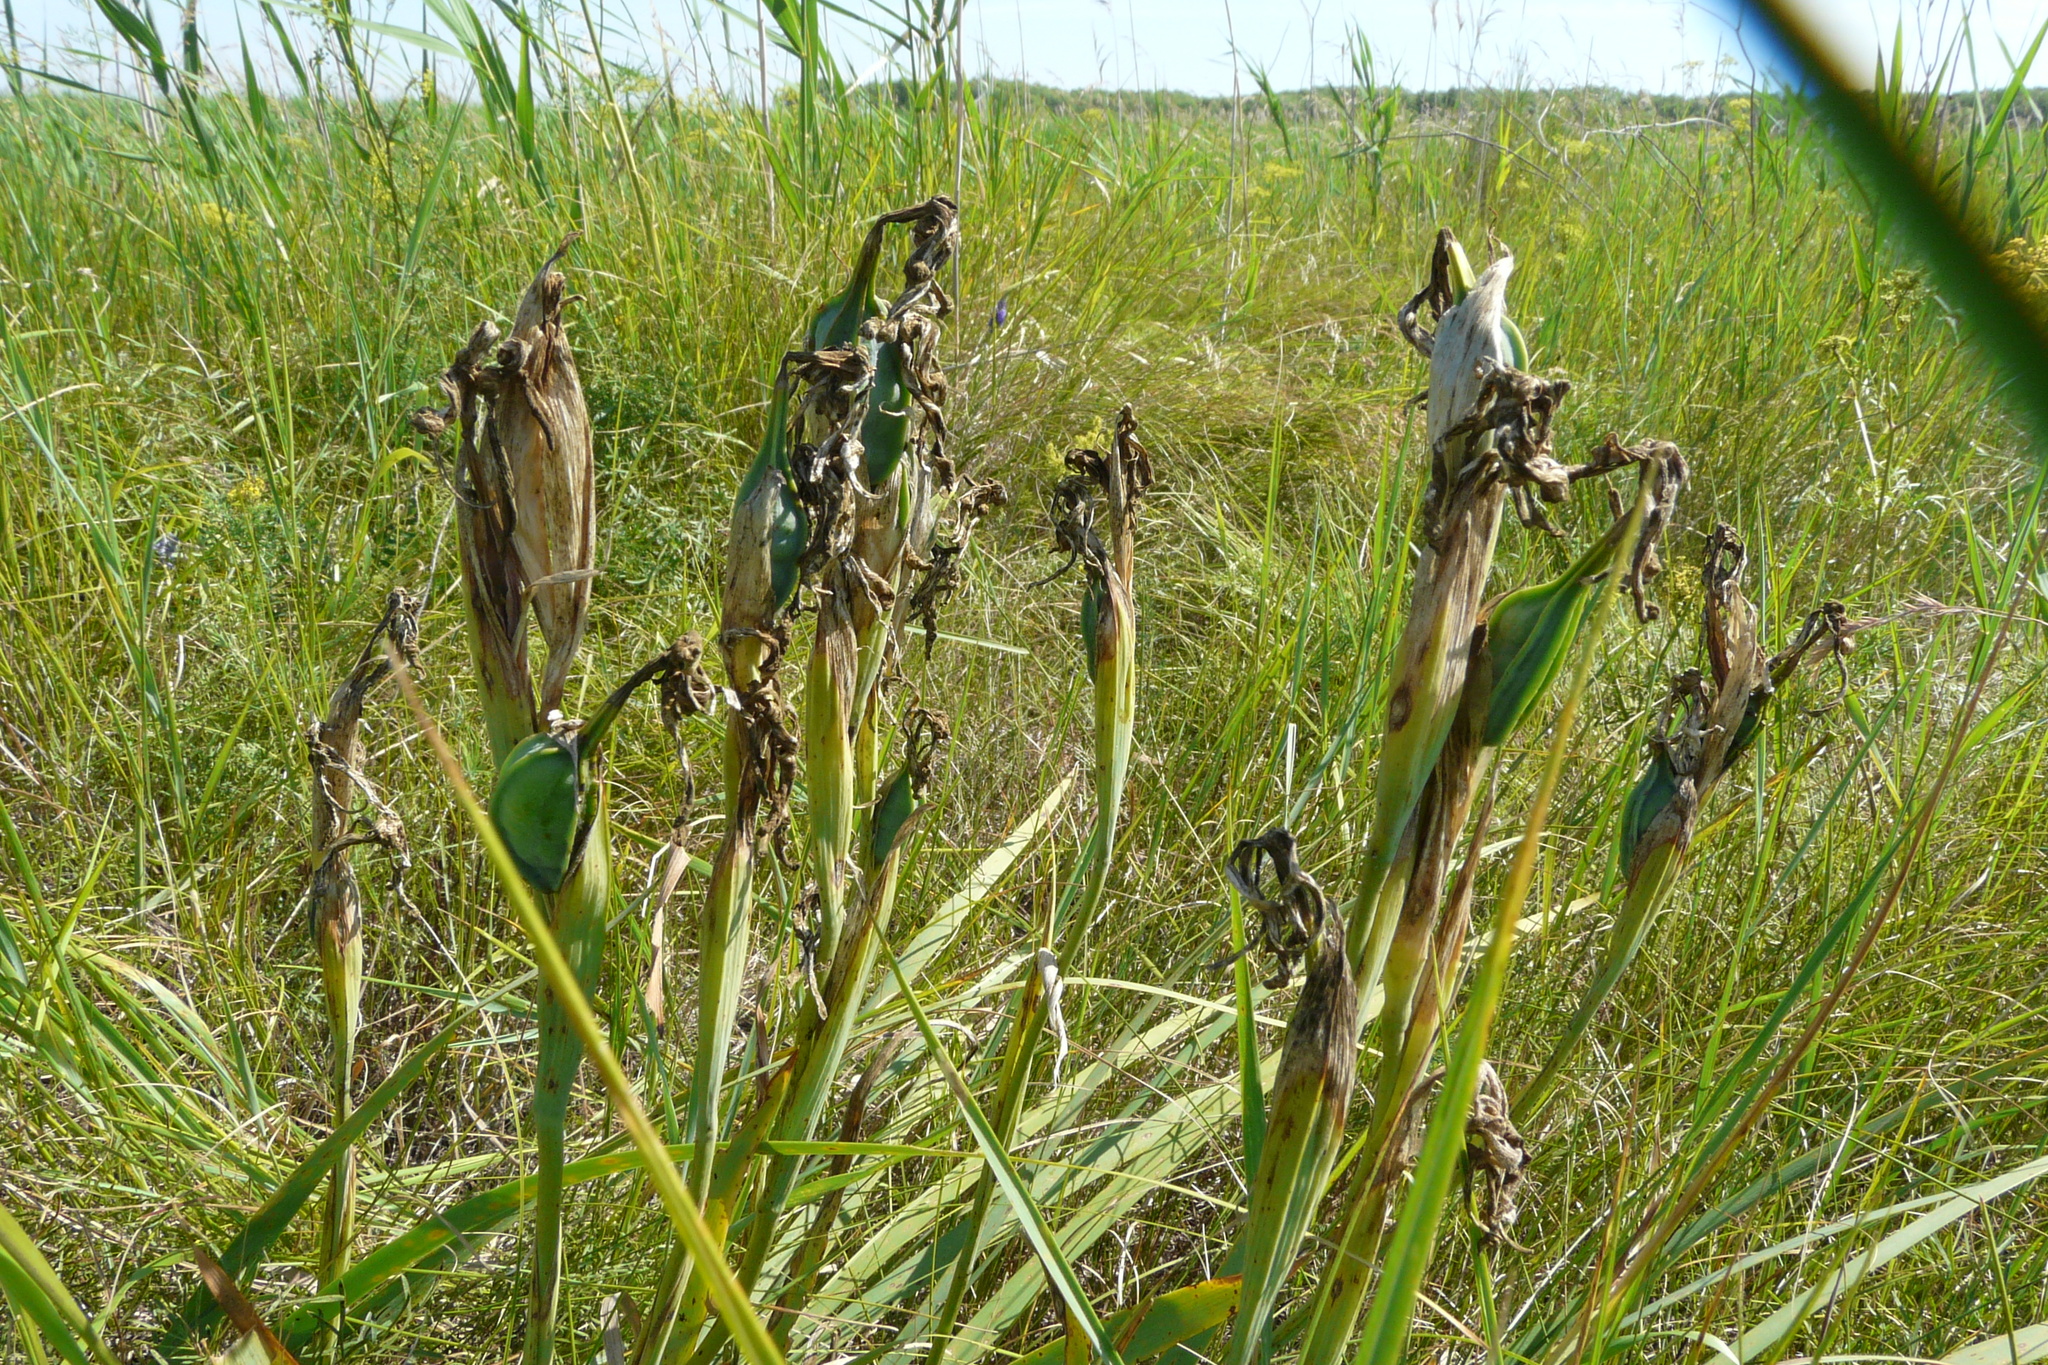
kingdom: Plantae
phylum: Tracheophyta
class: Liliopsida
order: Asparagales
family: Iridaceae
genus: Iris
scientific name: Iris halophila
